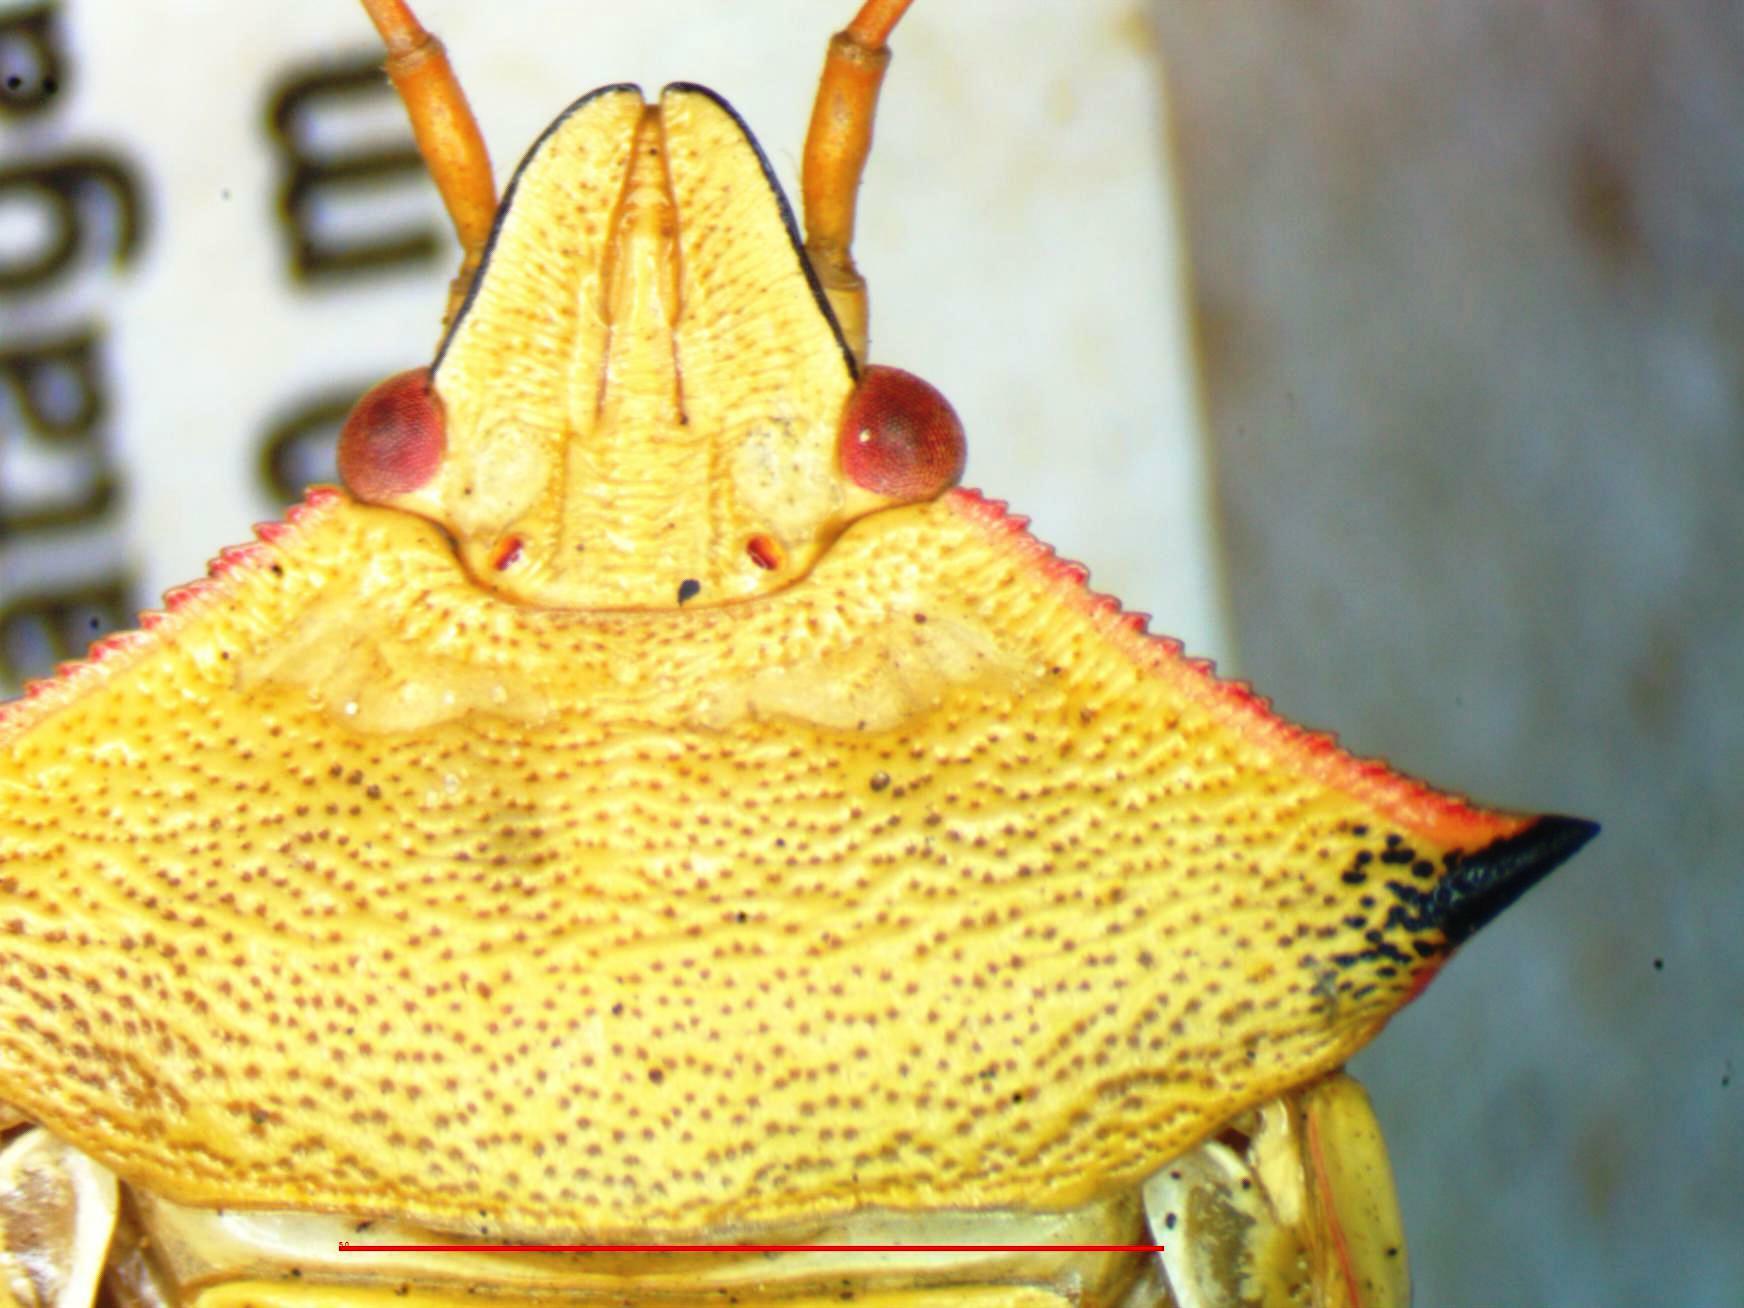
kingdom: Animalia
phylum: Arthropoda
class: Insecta
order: Hemiptera
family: Pentatomidae
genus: Chlorocoris
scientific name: Chlorocoris rufispinus
